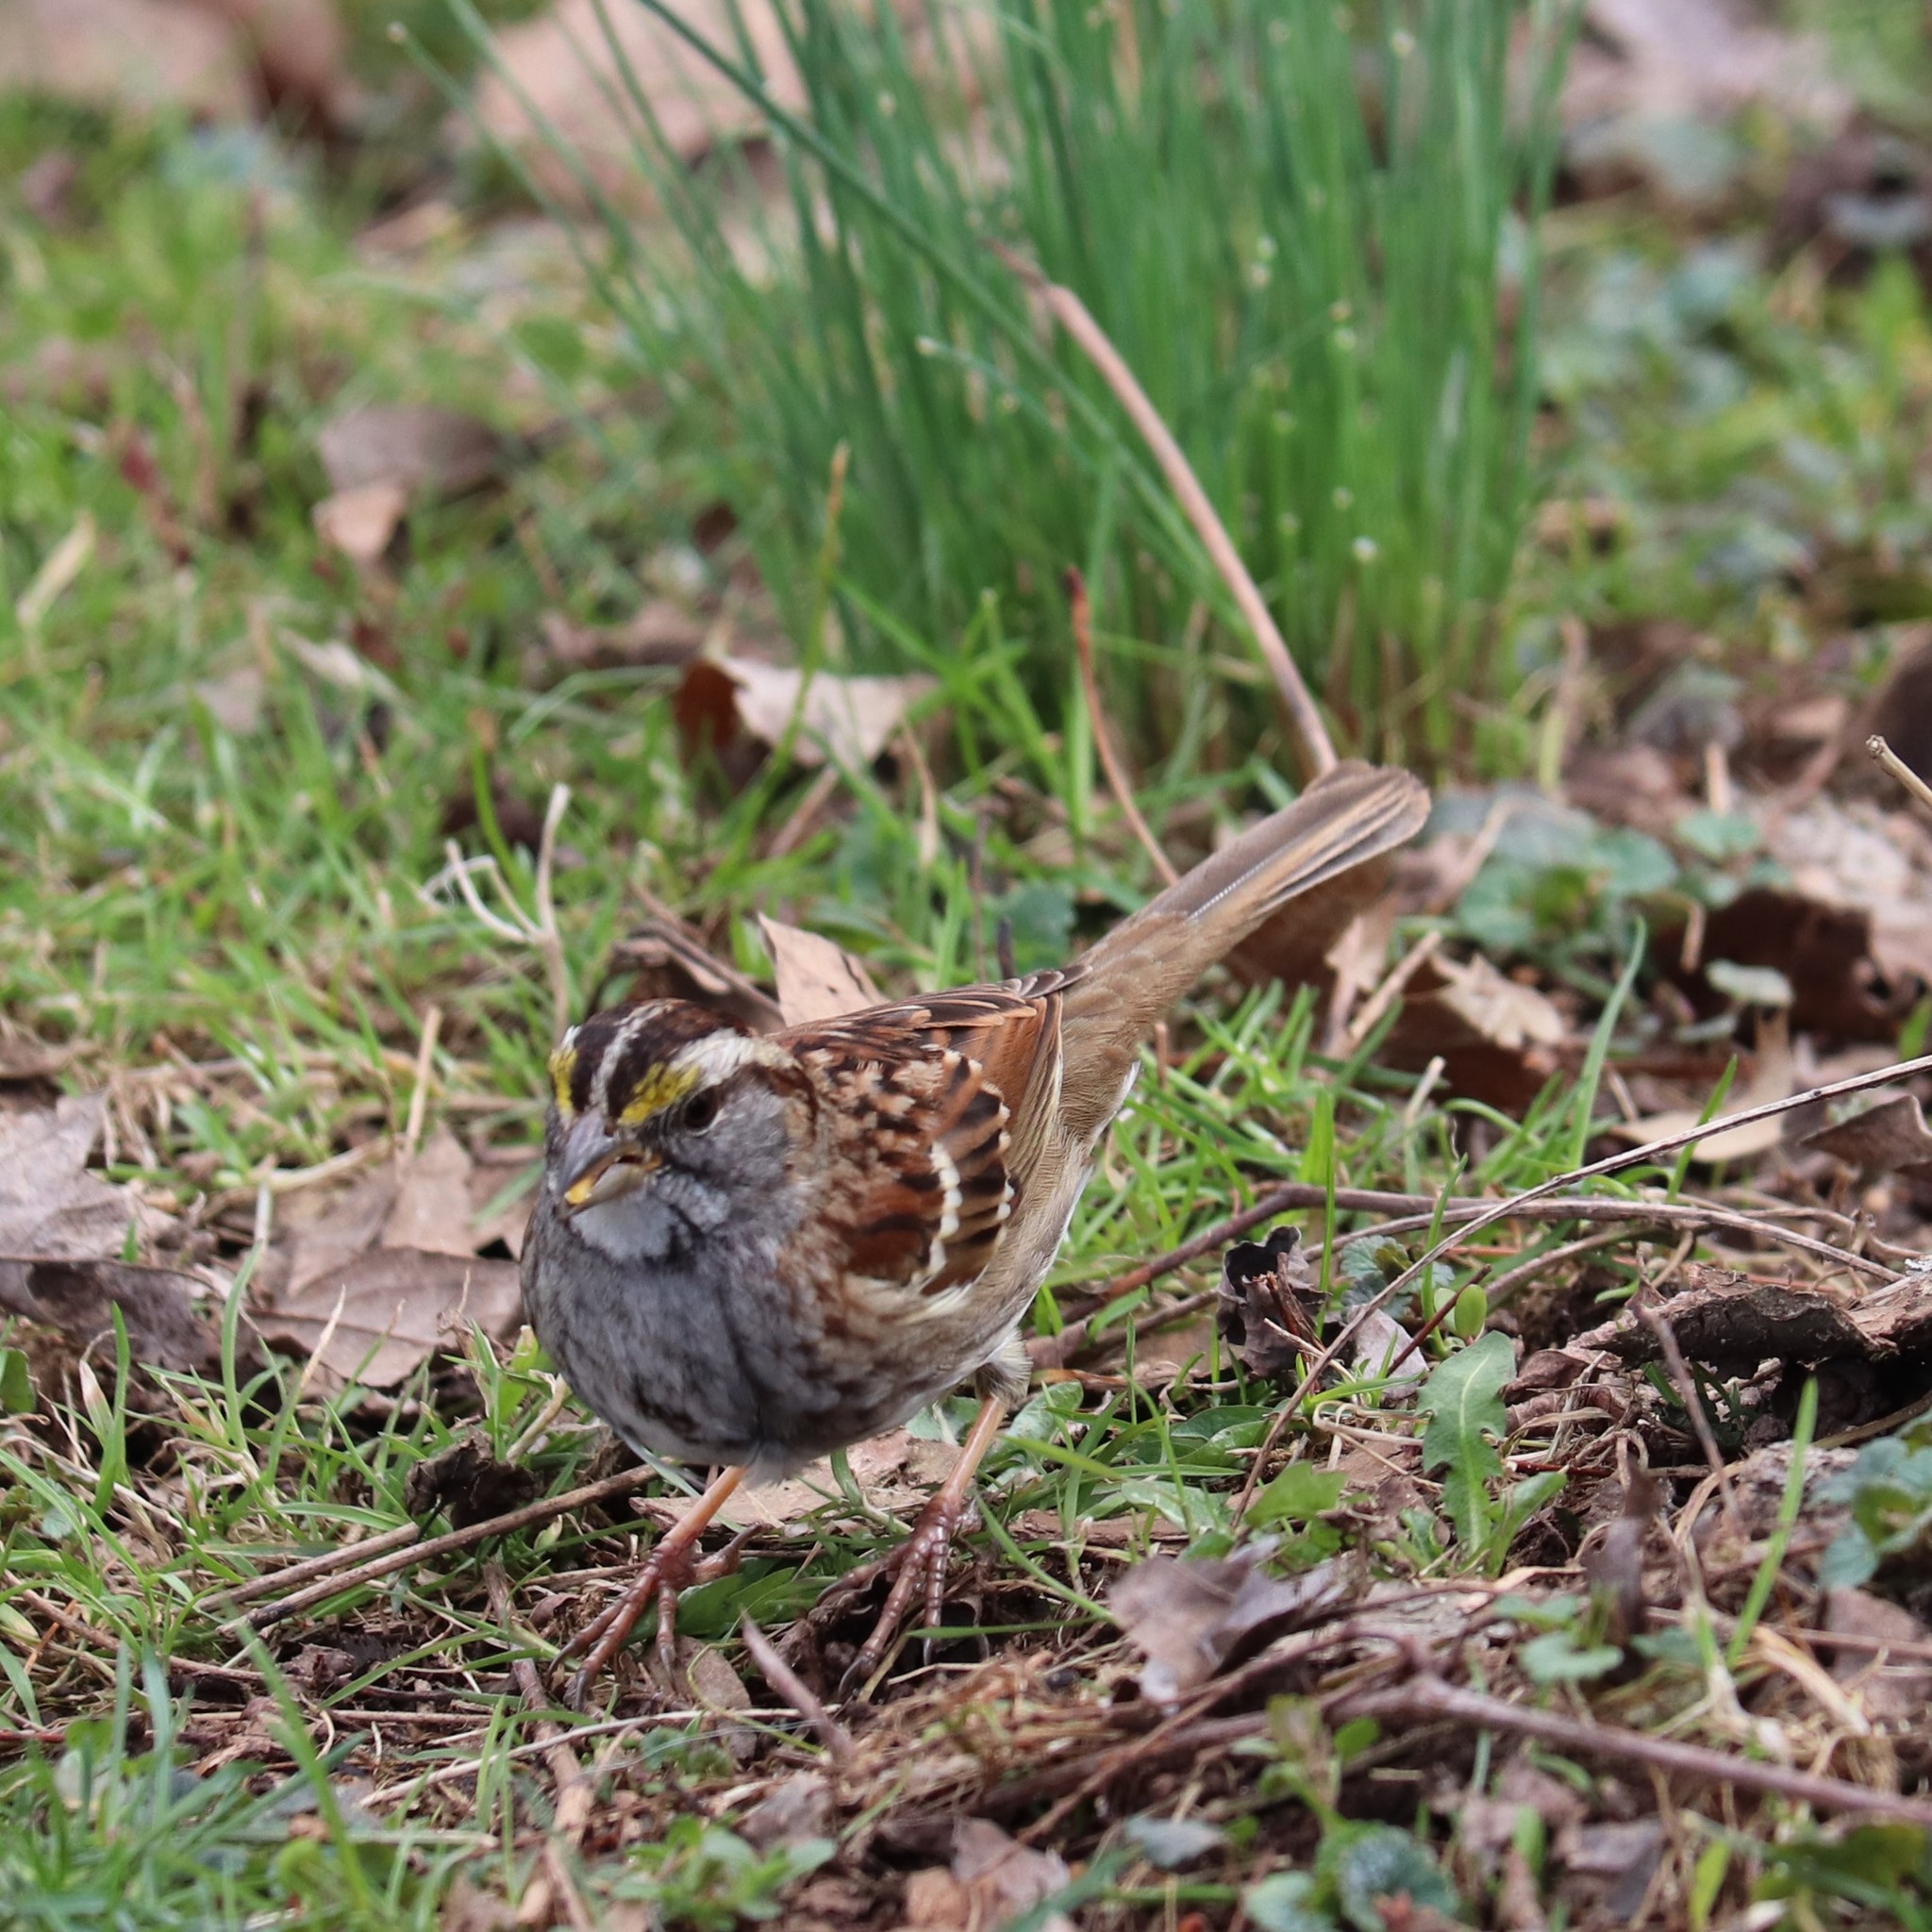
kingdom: Animalia
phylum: Chordata
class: Aves
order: Passeriformes
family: Passerellidae
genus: Zonotrichia
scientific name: Zonotrichia albicollis
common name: White-throated sparrow
